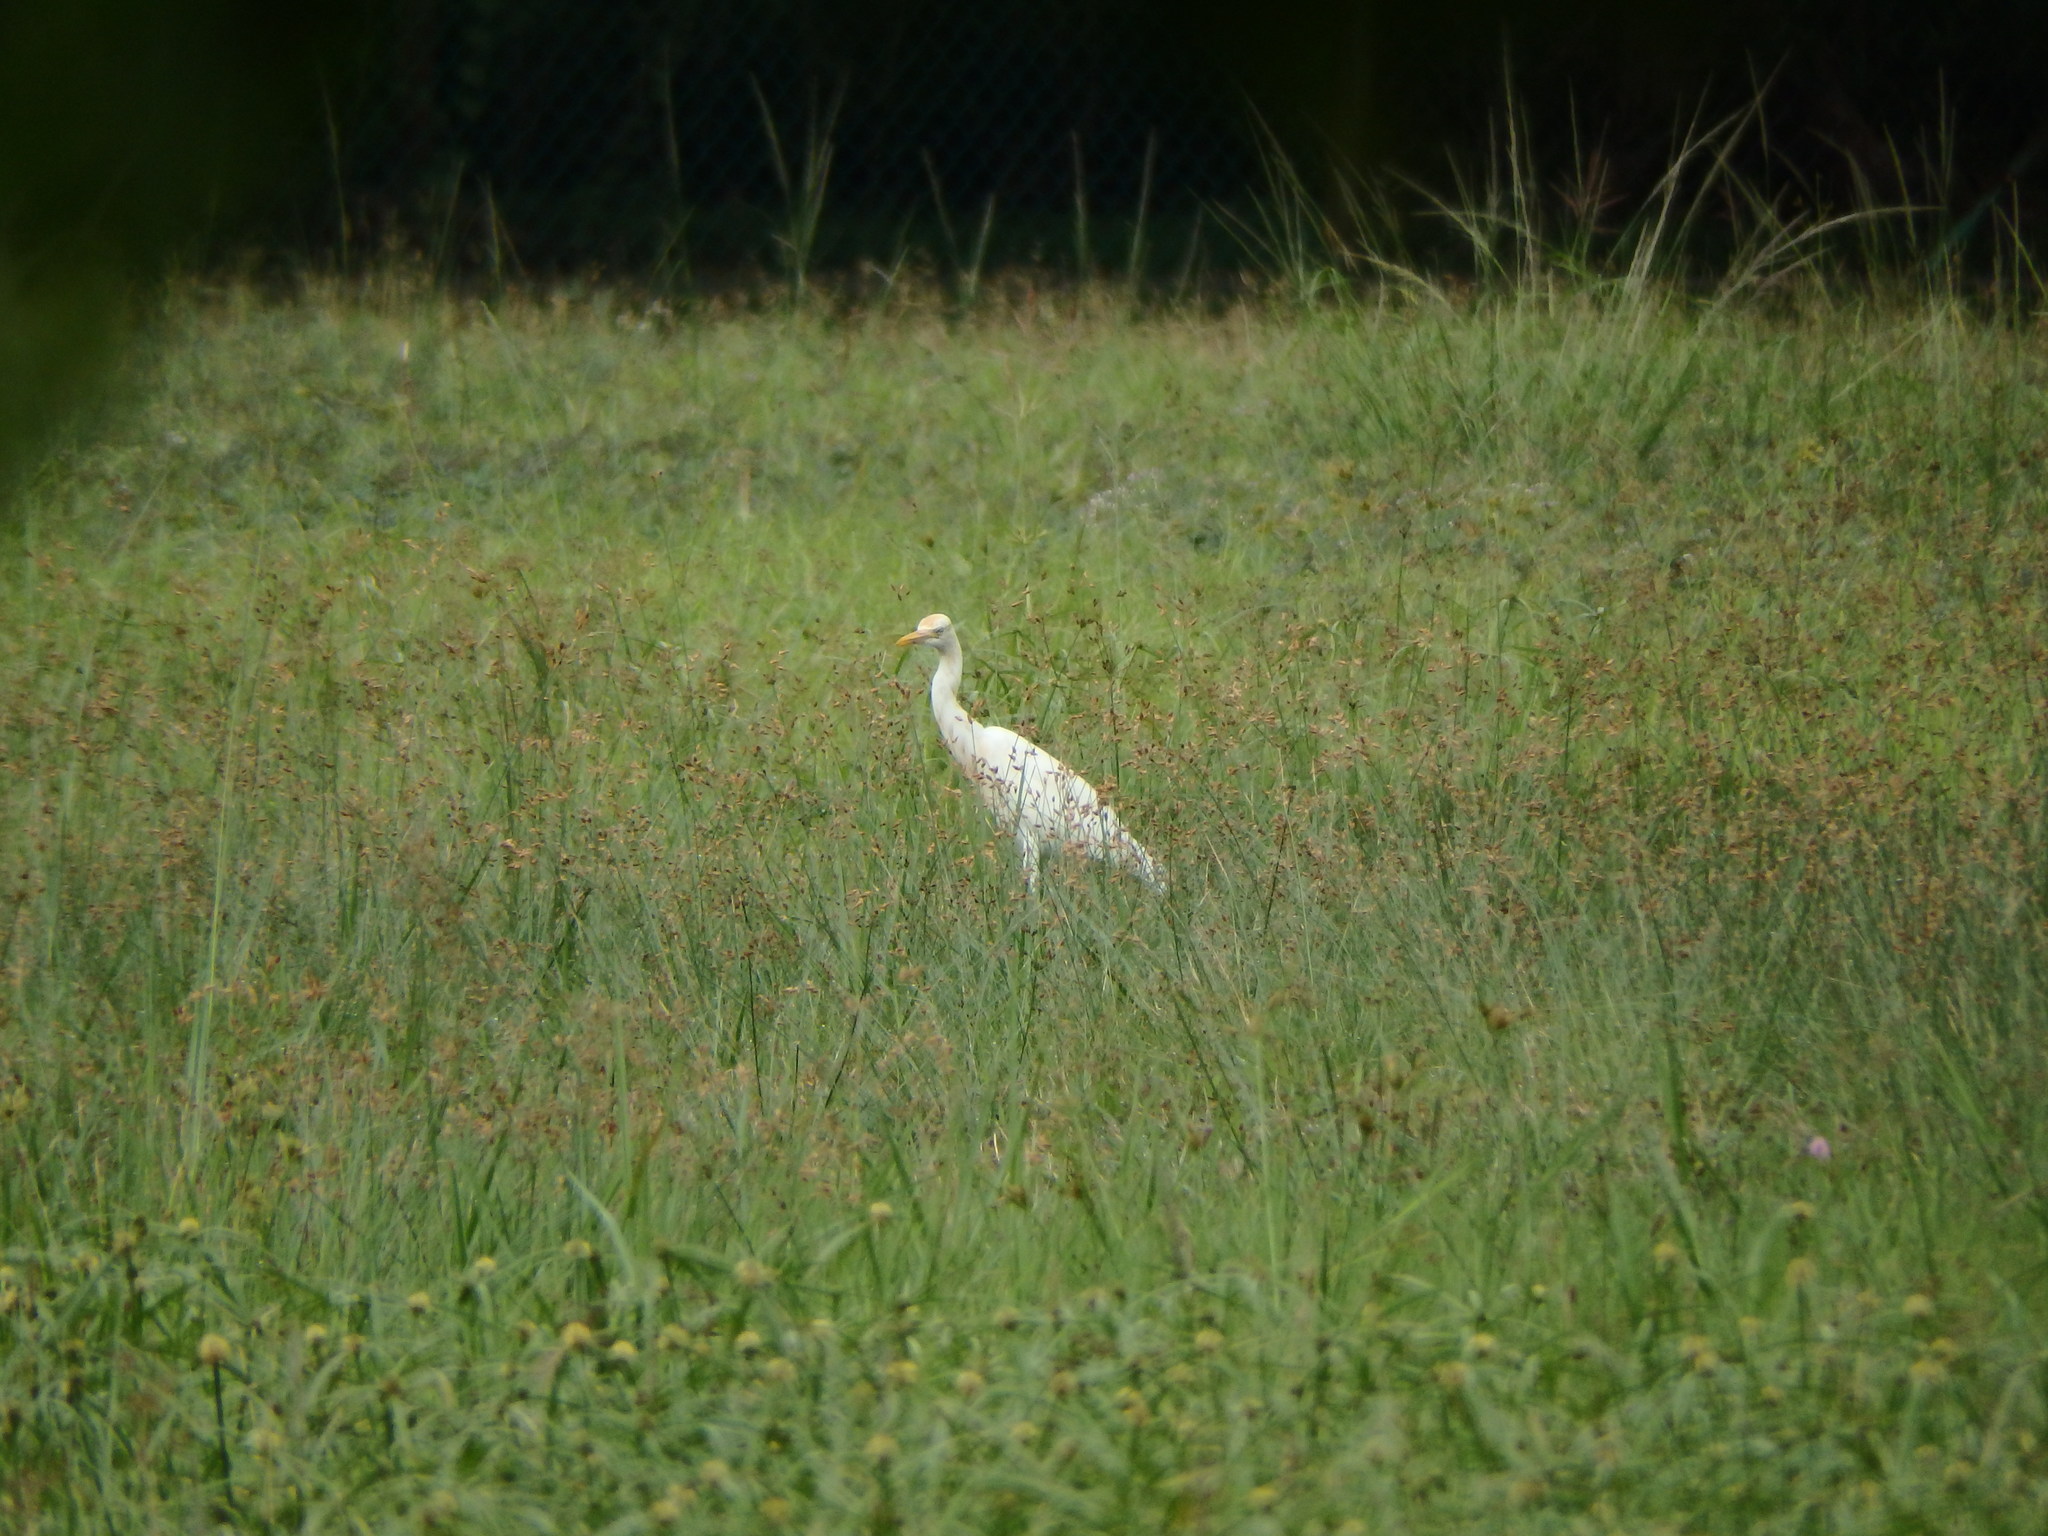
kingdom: Animalia
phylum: Chordata
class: Aves
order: Pelecaniformes
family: Ardeidae
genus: Bubulcus
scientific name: Bubulcus coromandus
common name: Eastern cattle egret
